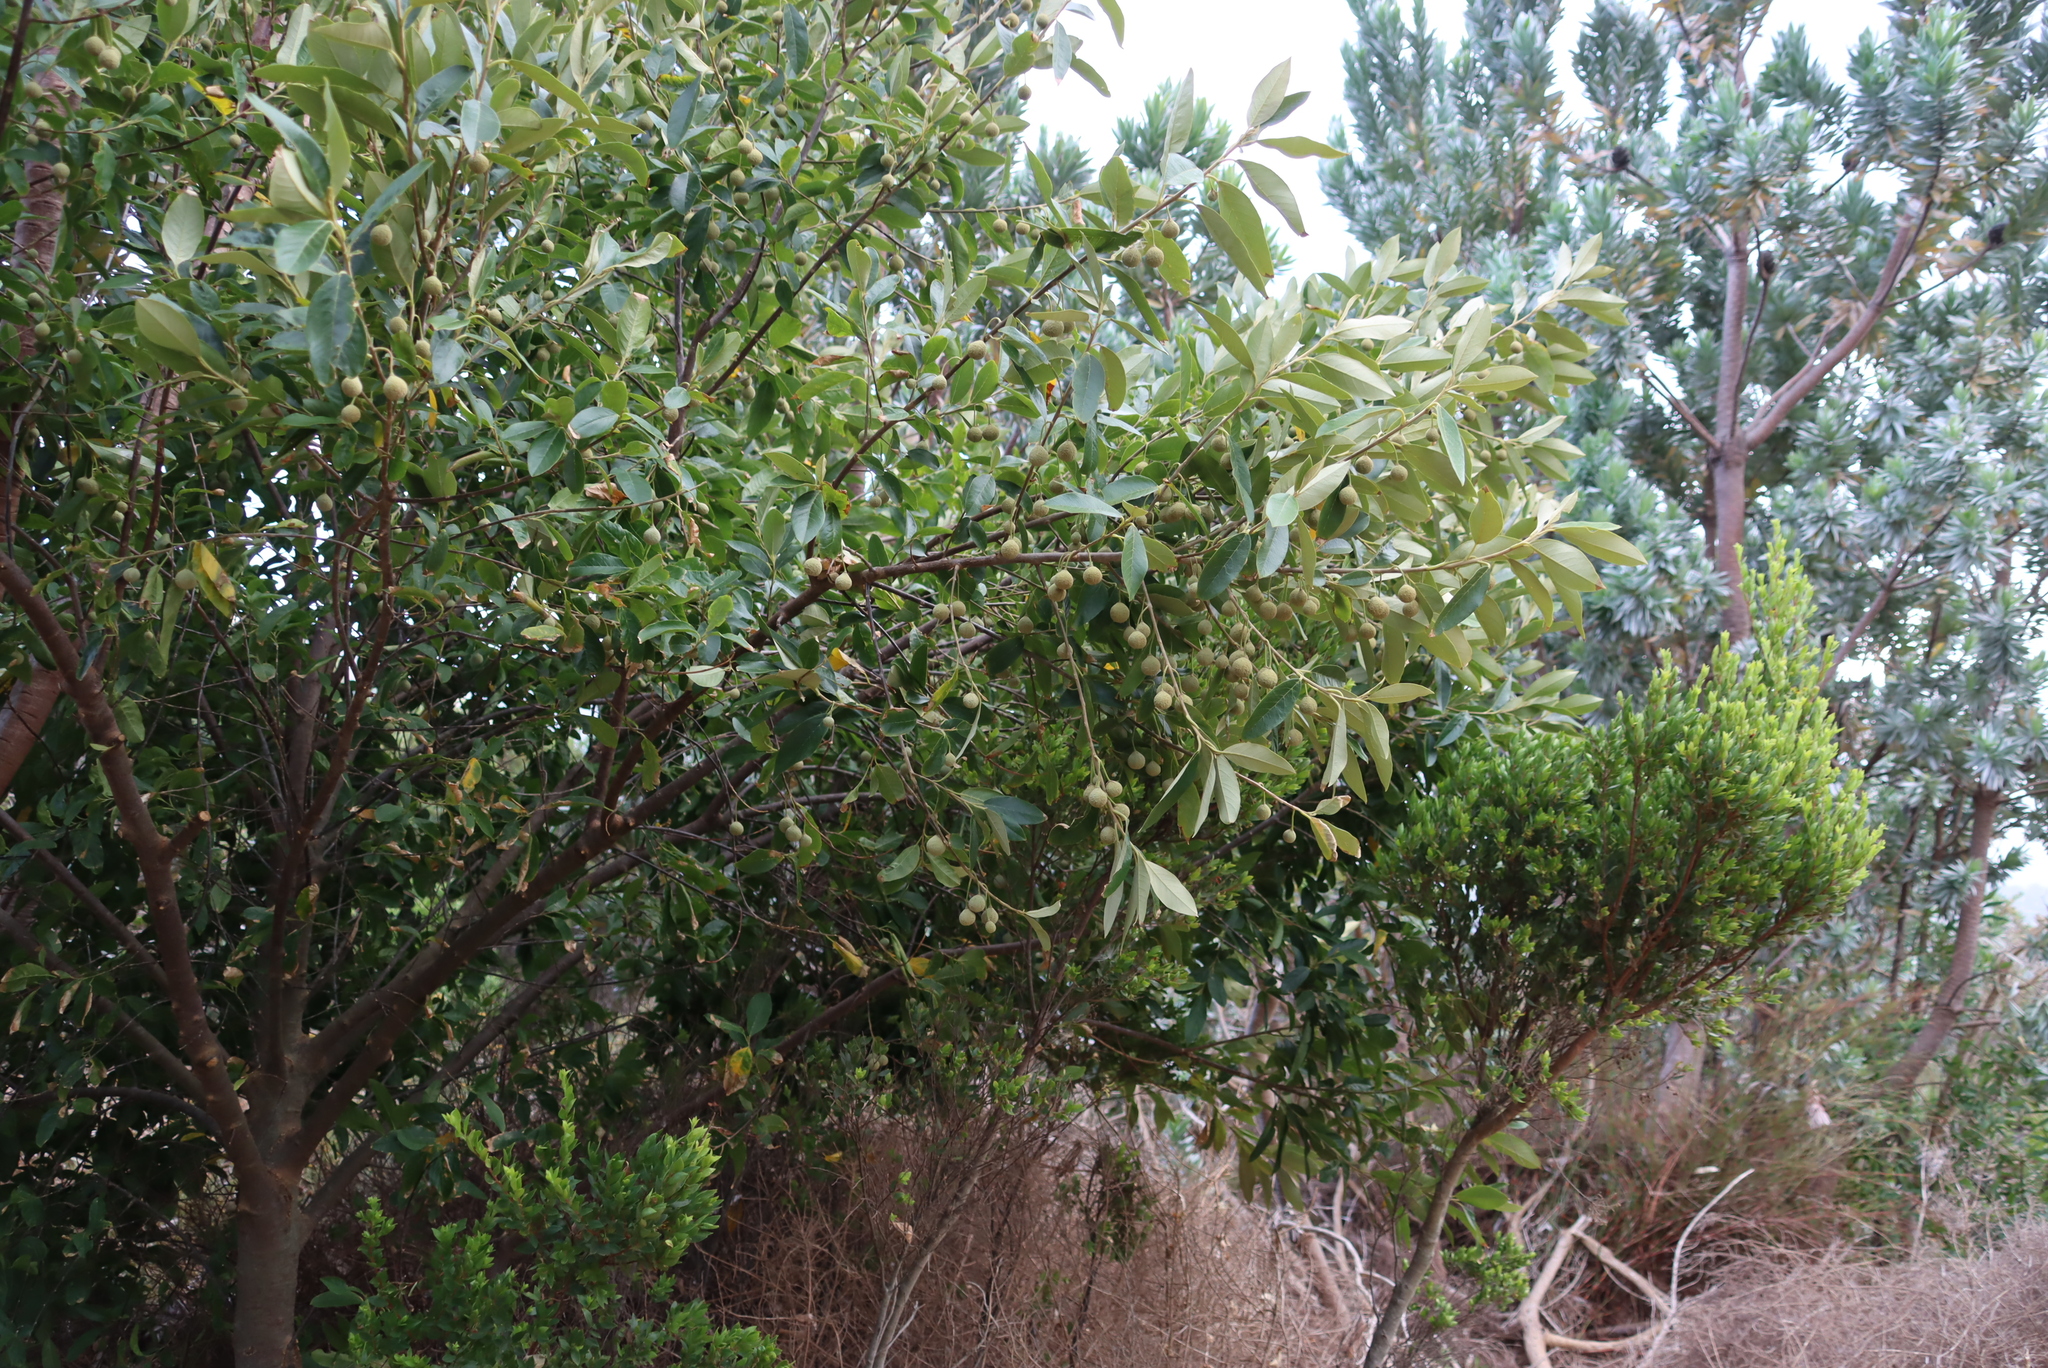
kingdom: Plantae
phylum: Tracheophyta
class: Magnoliopsida
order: Malpighiales
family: Achariaceae
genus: Kiggelaria
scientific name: Kiggelaria africana
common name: Wild peach
